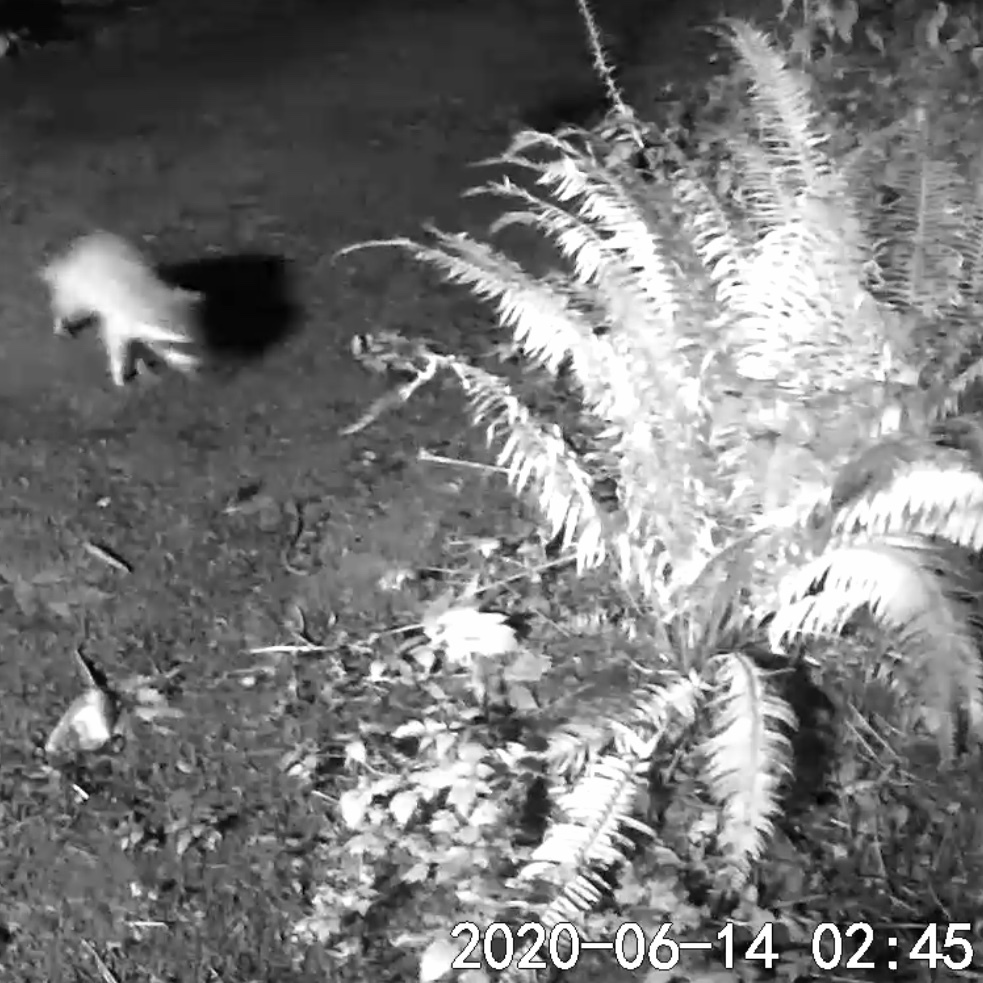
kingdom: Animalia
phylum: Chordata
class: Mammalia
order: Carnivora
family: Procyonidae
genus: Procyon
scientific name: Procyon lotor
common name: Raccoon
